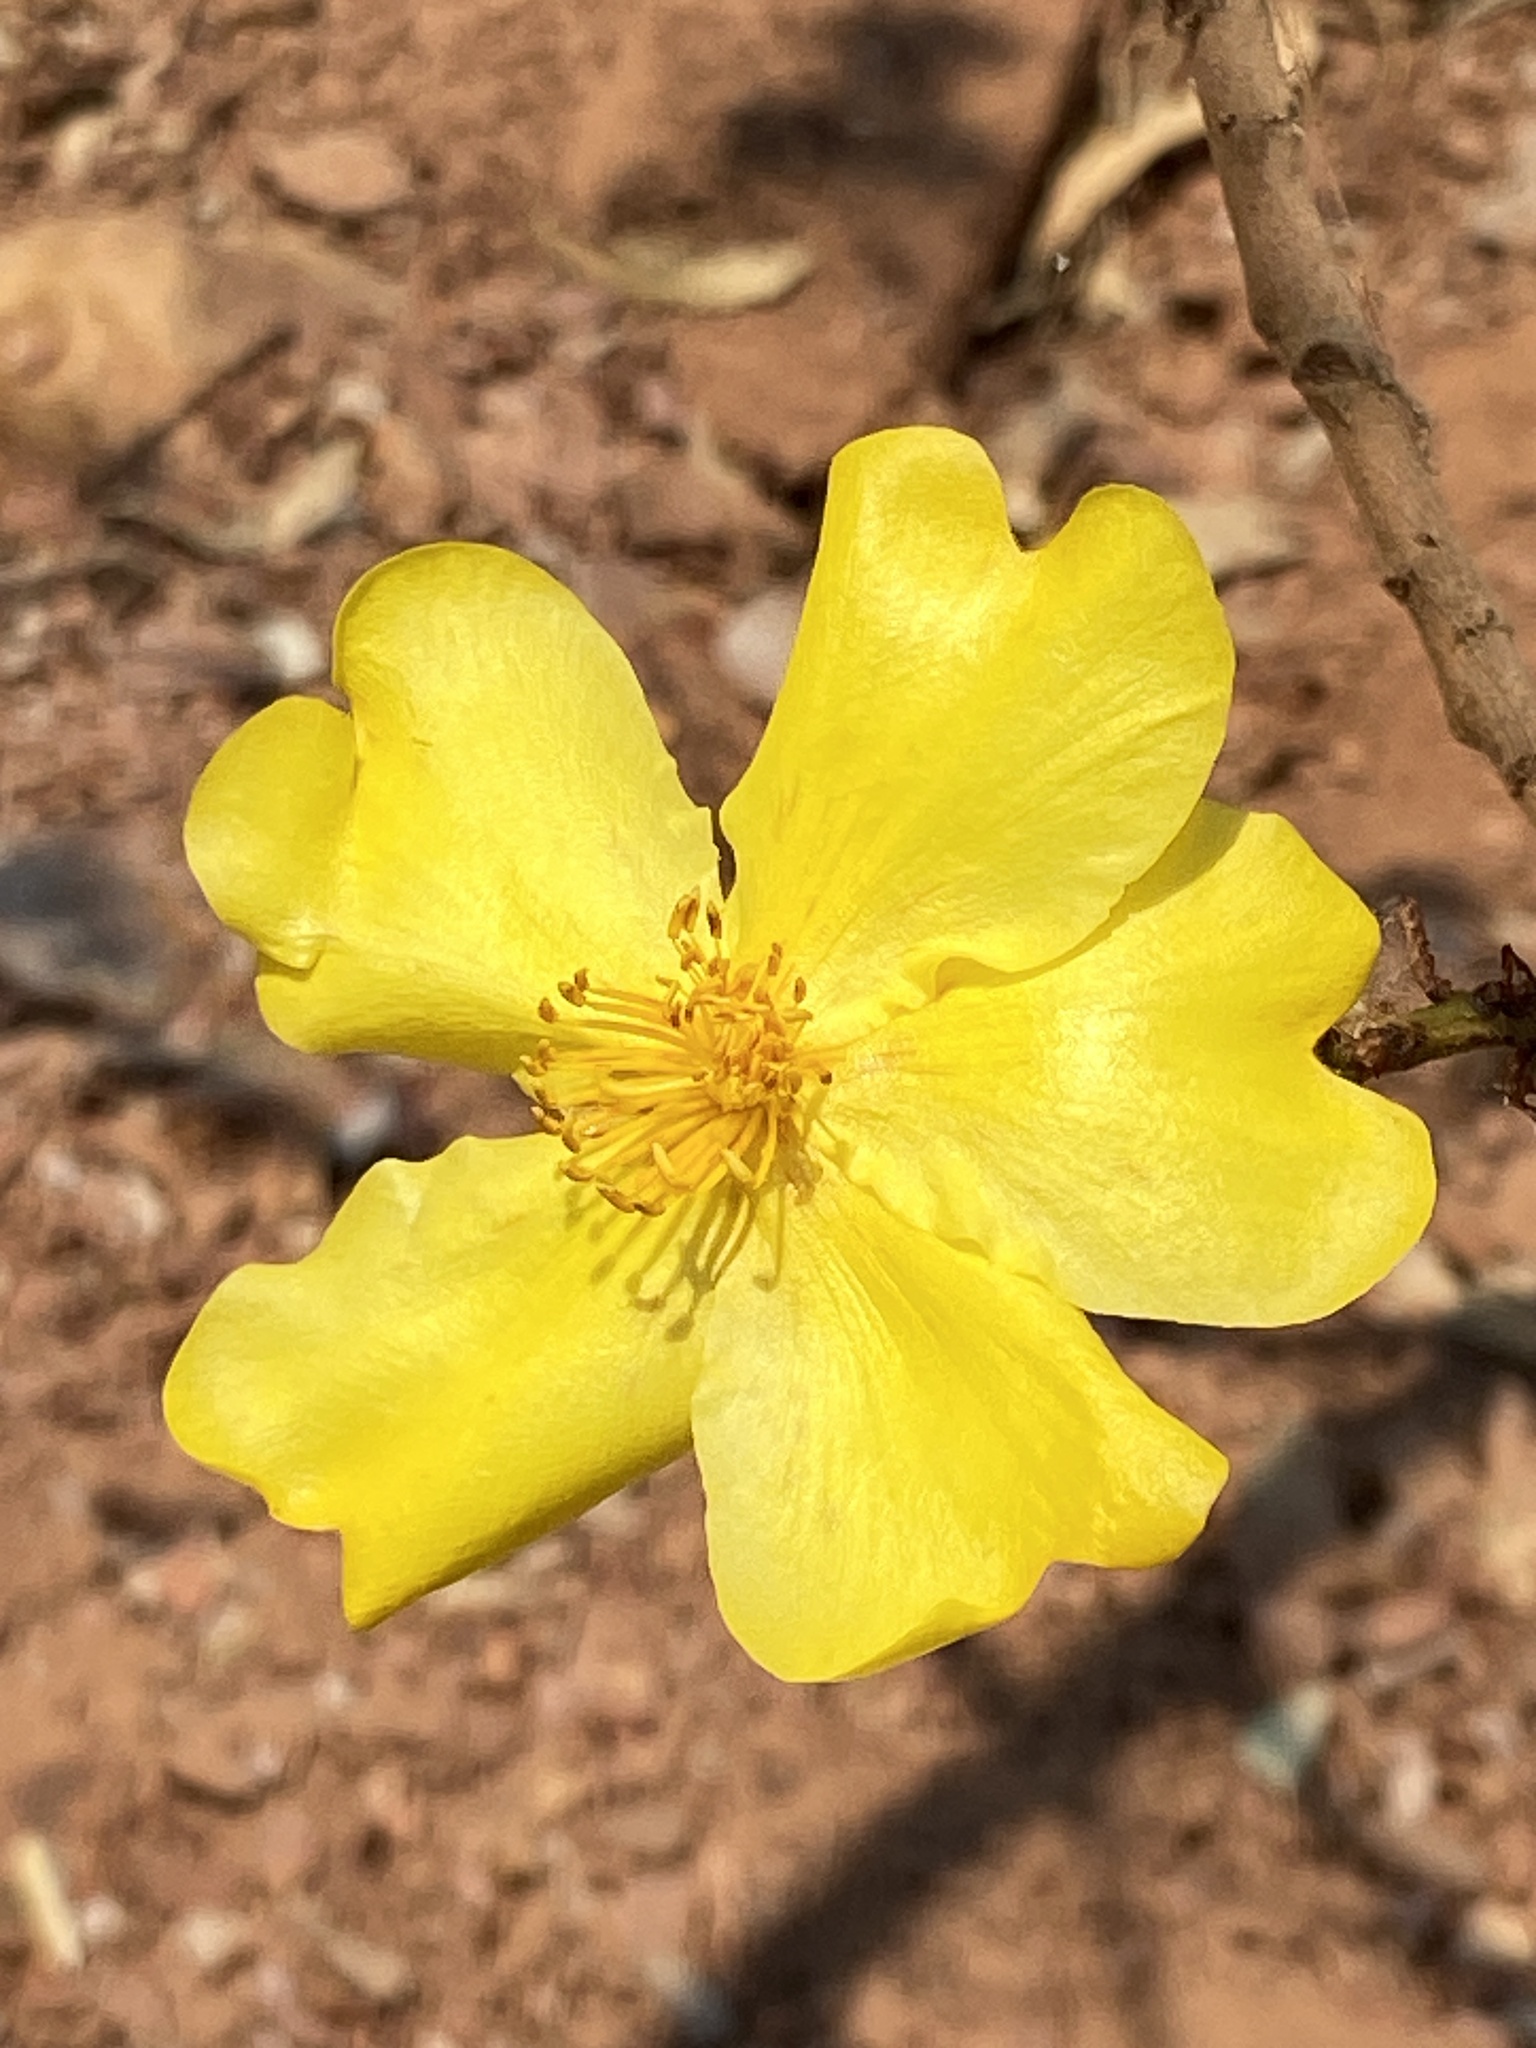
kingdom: Plantae
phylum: Tracheophyta
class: Magnoliopsida
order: Malvales
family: Cochlospermaceae
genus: Cochlospermum
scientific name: Cochlospermum fraseri
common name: Kapokbush
